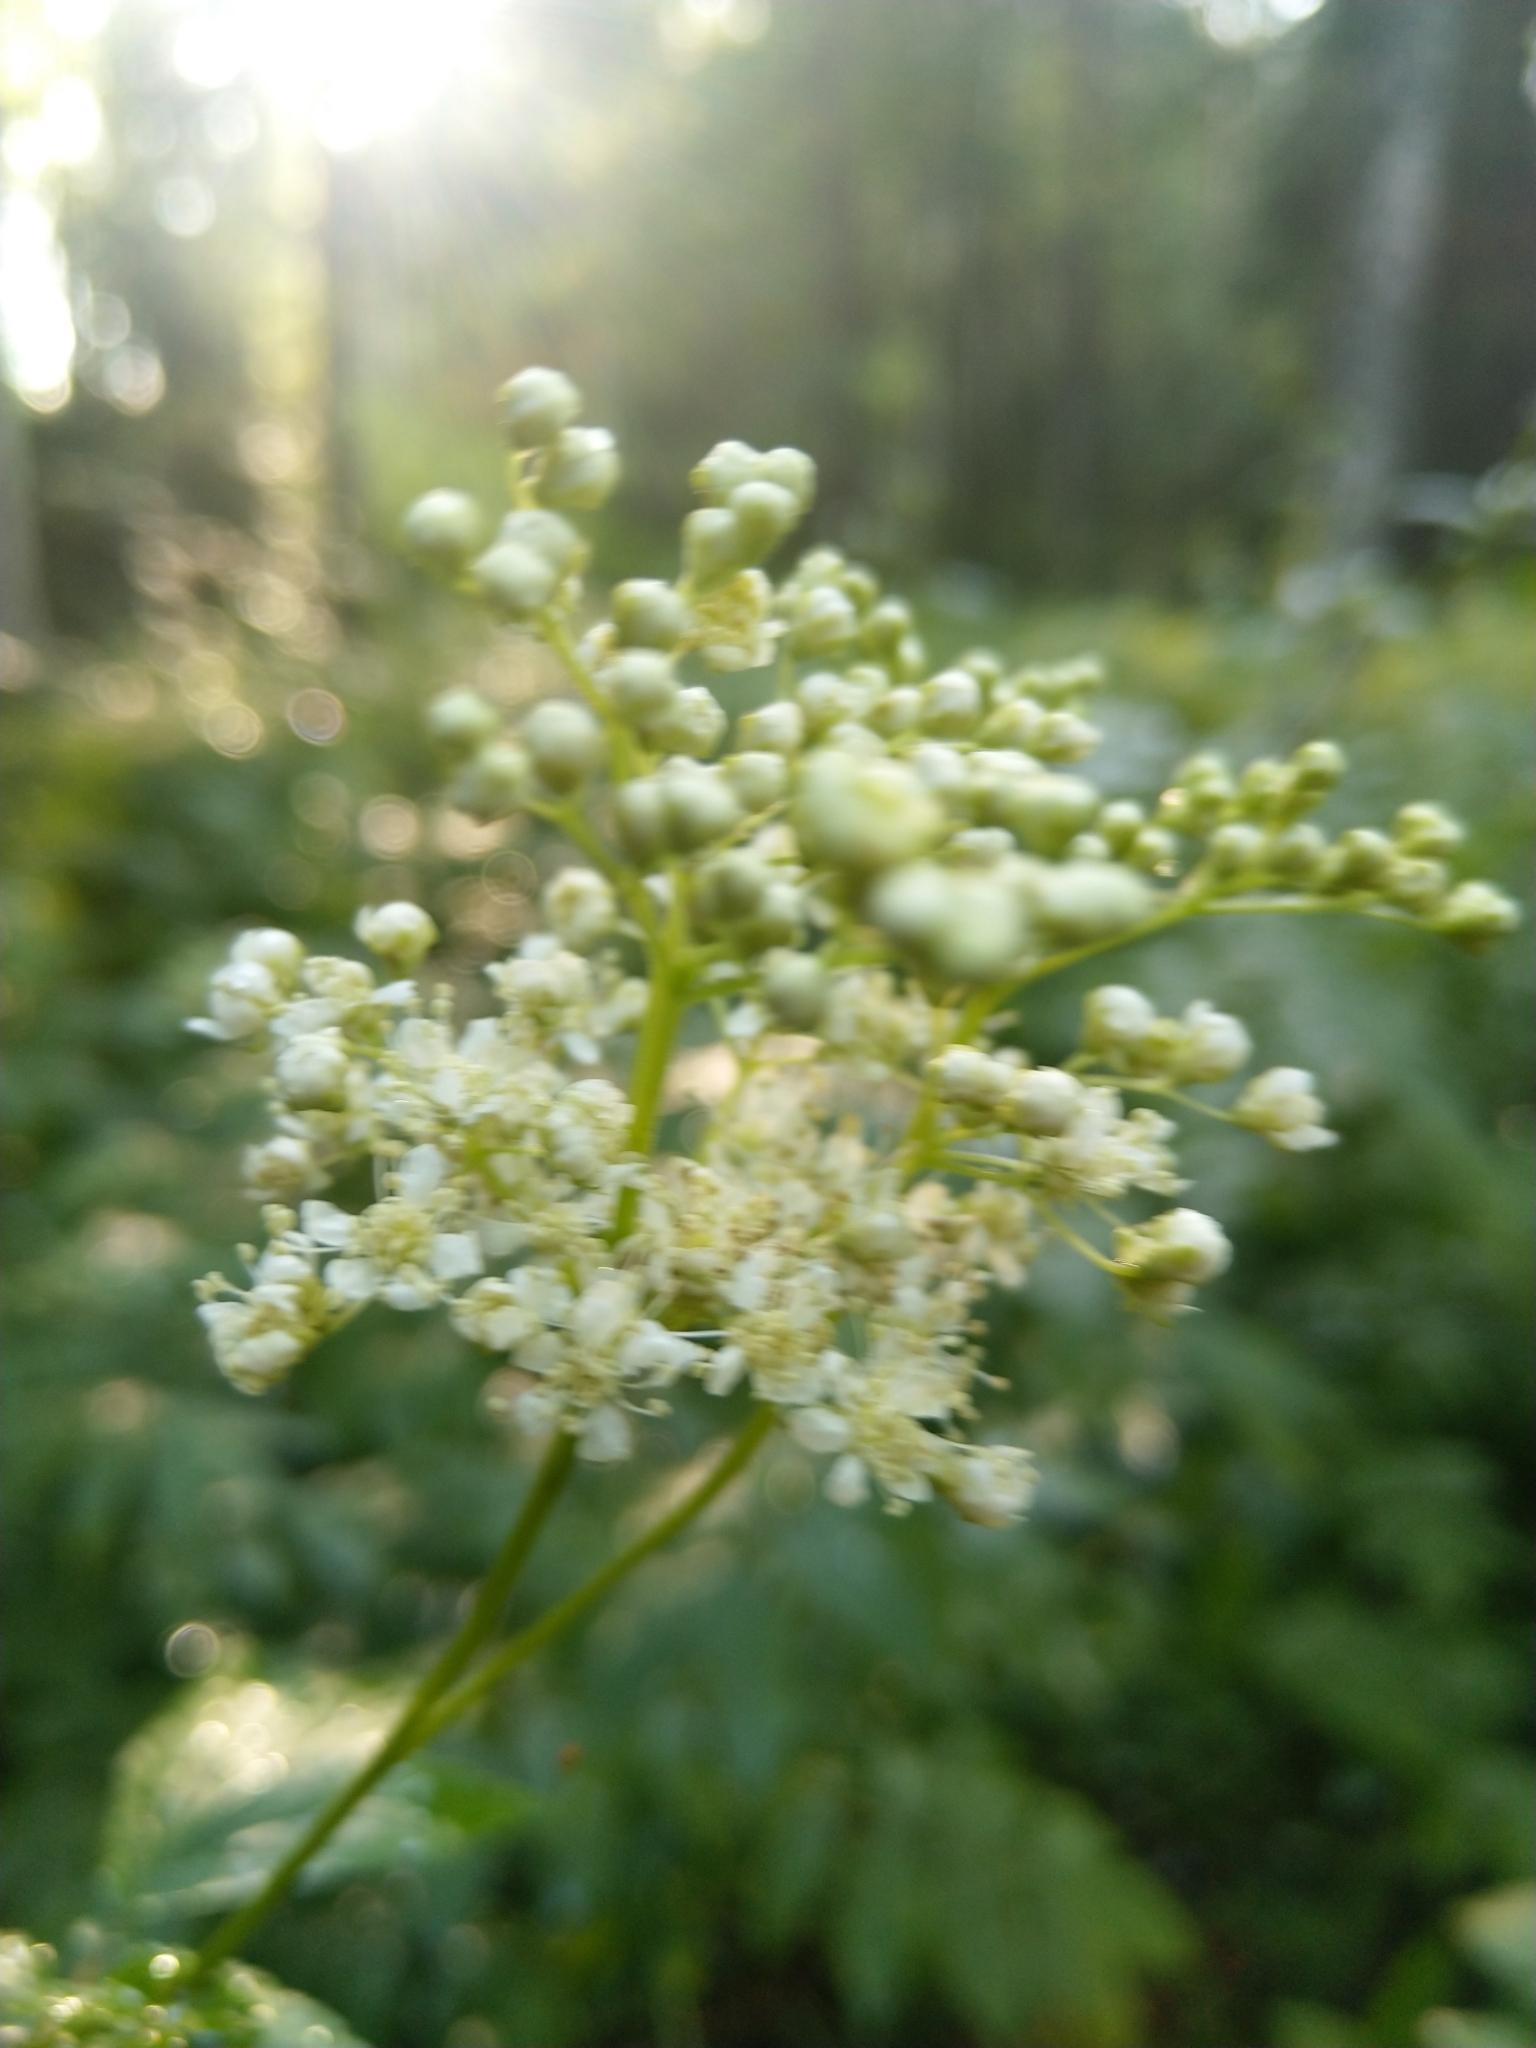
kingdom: Plantae
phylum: Tracheophyta
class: Magnoliopsida
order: Rosales
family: Rosaceae
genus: Filipendula
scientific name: Filipendula ulmaria
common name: Meadowsweet
